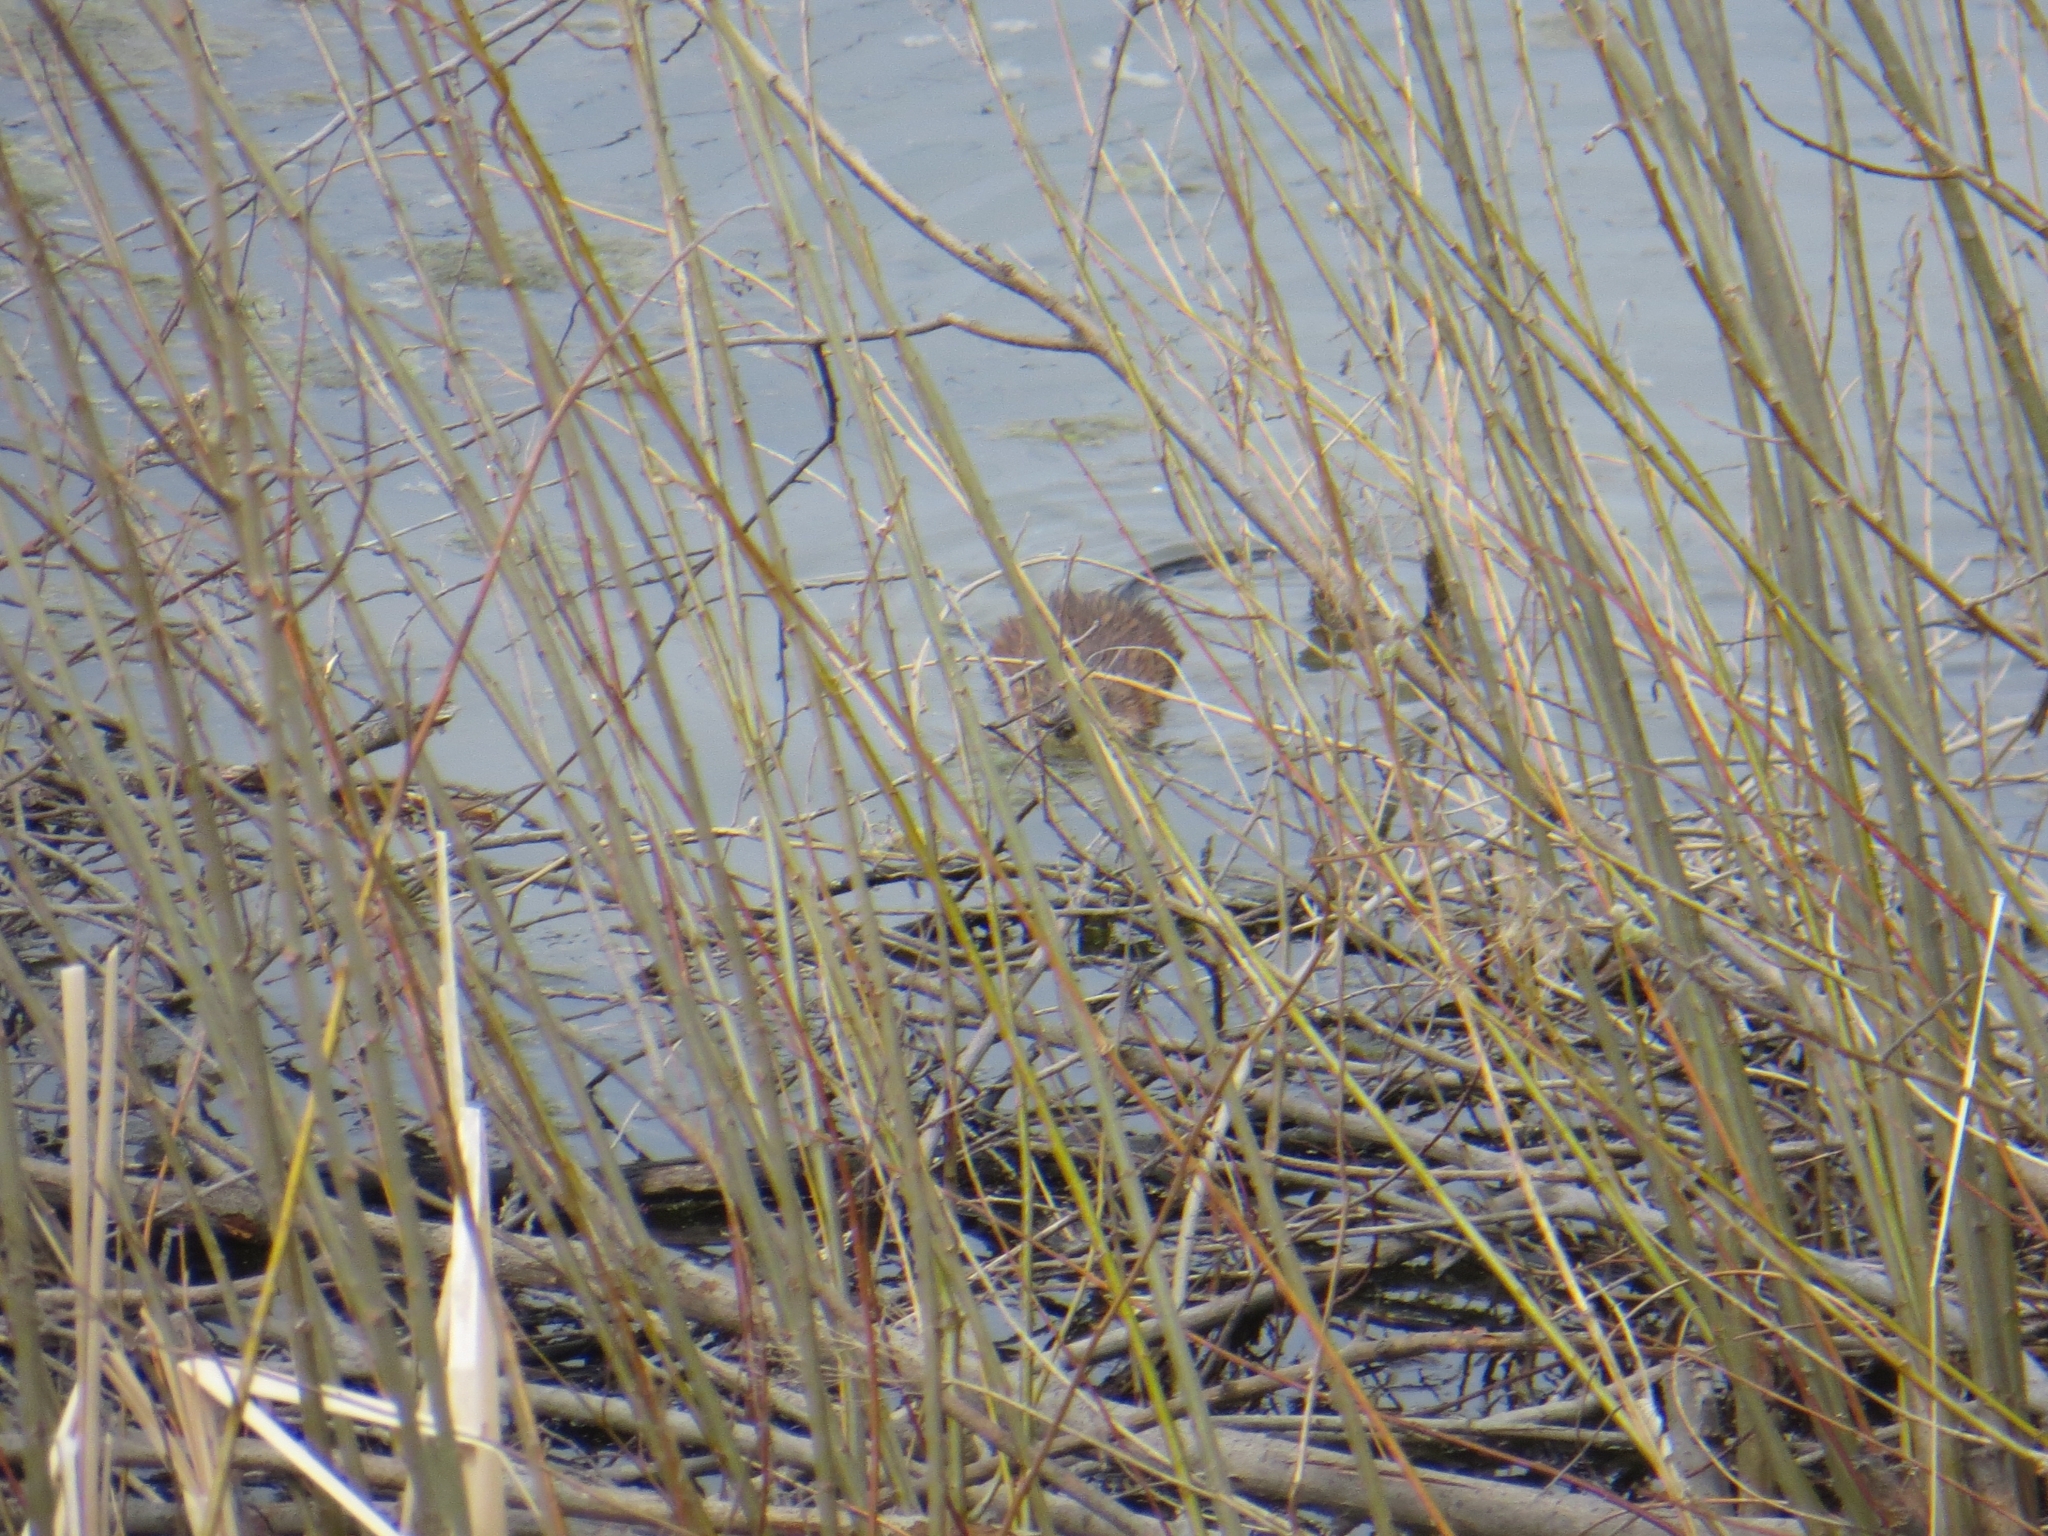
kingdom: Animalia
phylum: Chordata
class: Mammalia
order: Rodentia
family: Cricetidae
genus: Ondatra
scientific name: Ondatra zibethicus
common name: Muskrat
